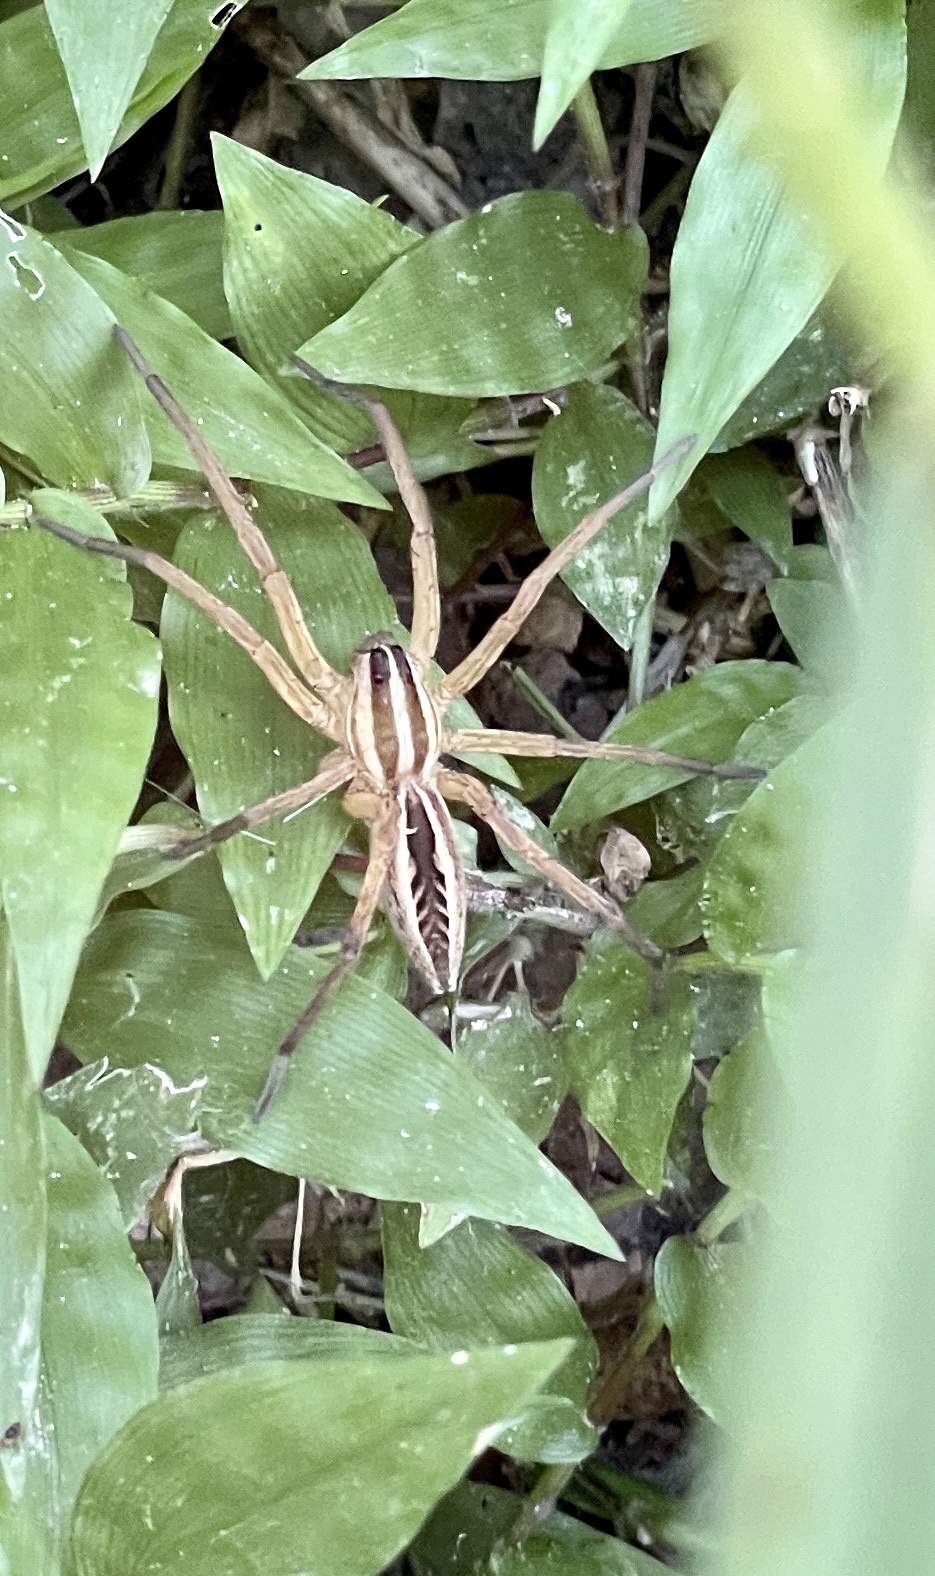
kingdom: Animalia
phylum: Arthropoda
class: Arachnida
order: Araneae
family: Lycosidae
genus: Rabidosa
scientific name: Rabidosa rabida
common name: Rabid wolf spider
